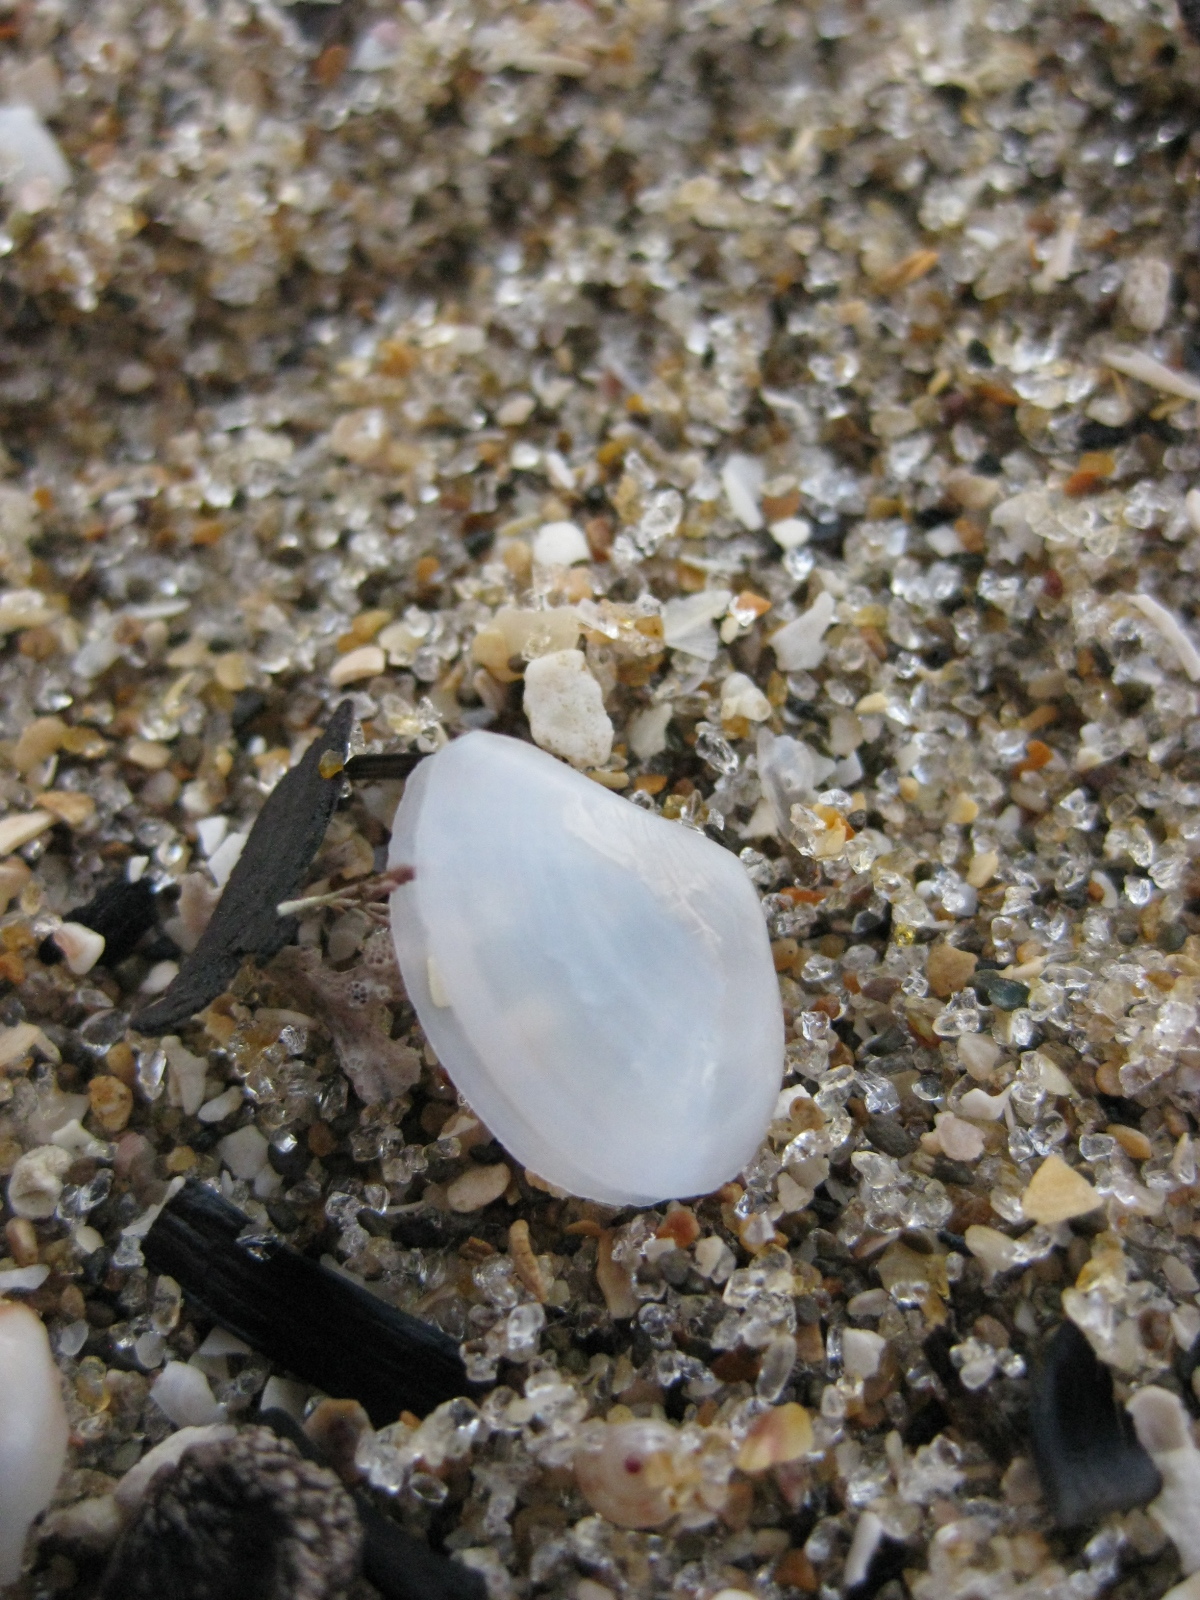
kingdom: Animalia
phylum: Mollusca
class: Bivalvia
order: Cardiida
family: Tellinidae
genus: Macomona
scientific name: Macomona liliana
